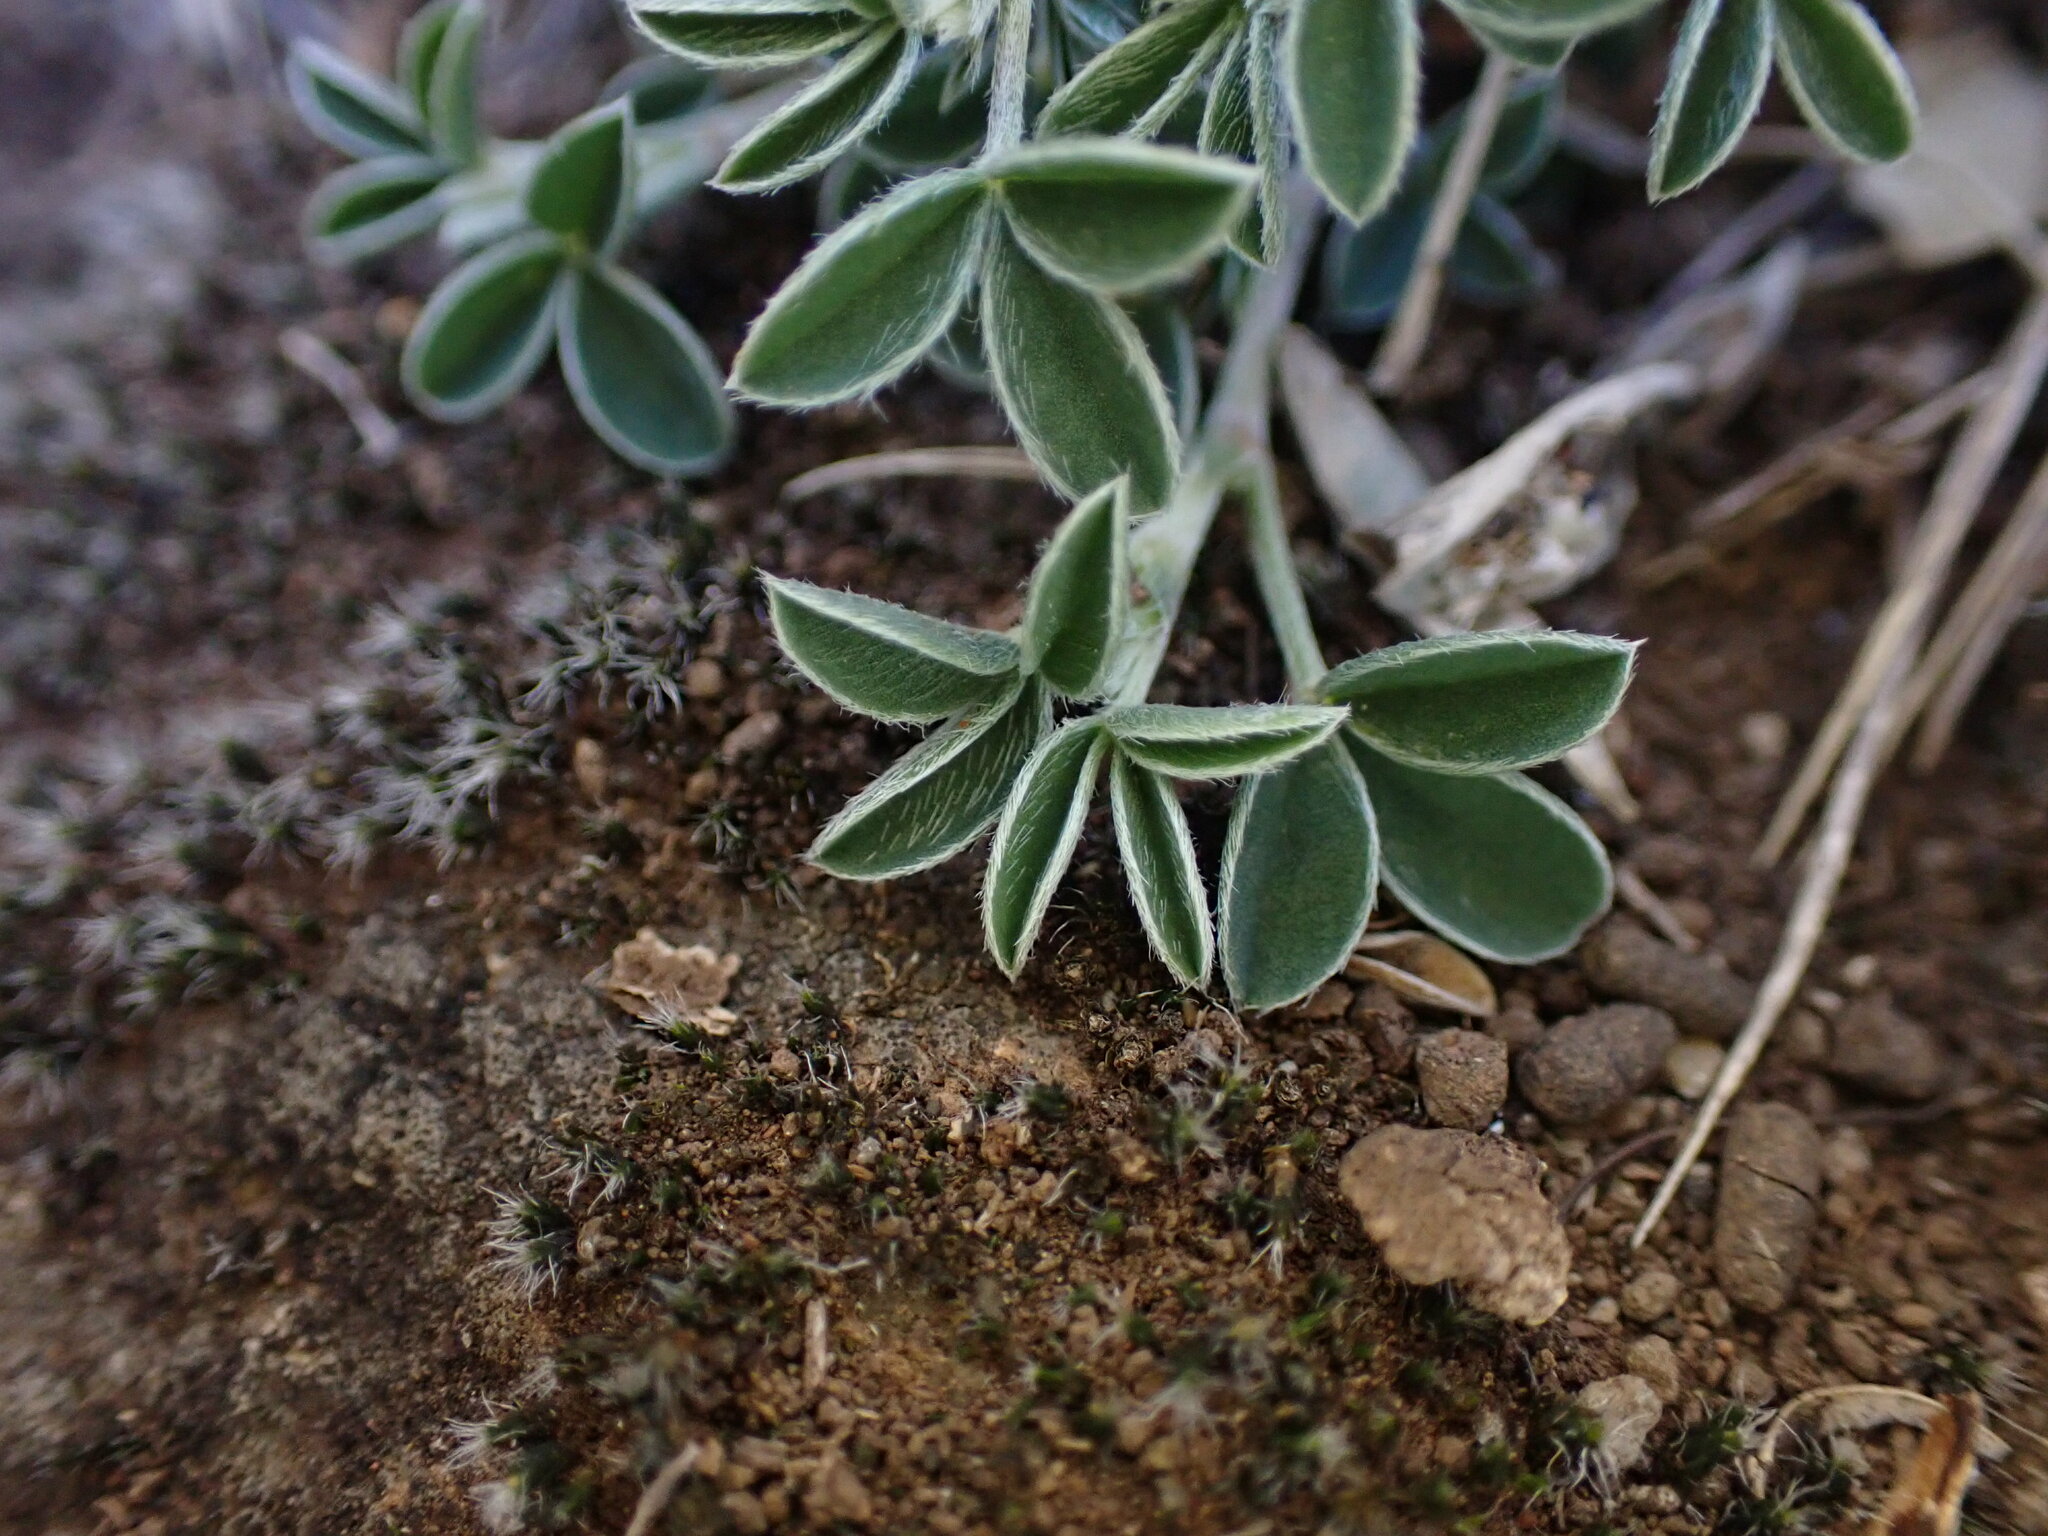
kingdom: Plantae
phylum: Tracheophyta
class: Magnoliopsida
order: Fabales
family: Fabaceae
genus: Argyrolobium
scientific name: Argyrolobium zanonii
